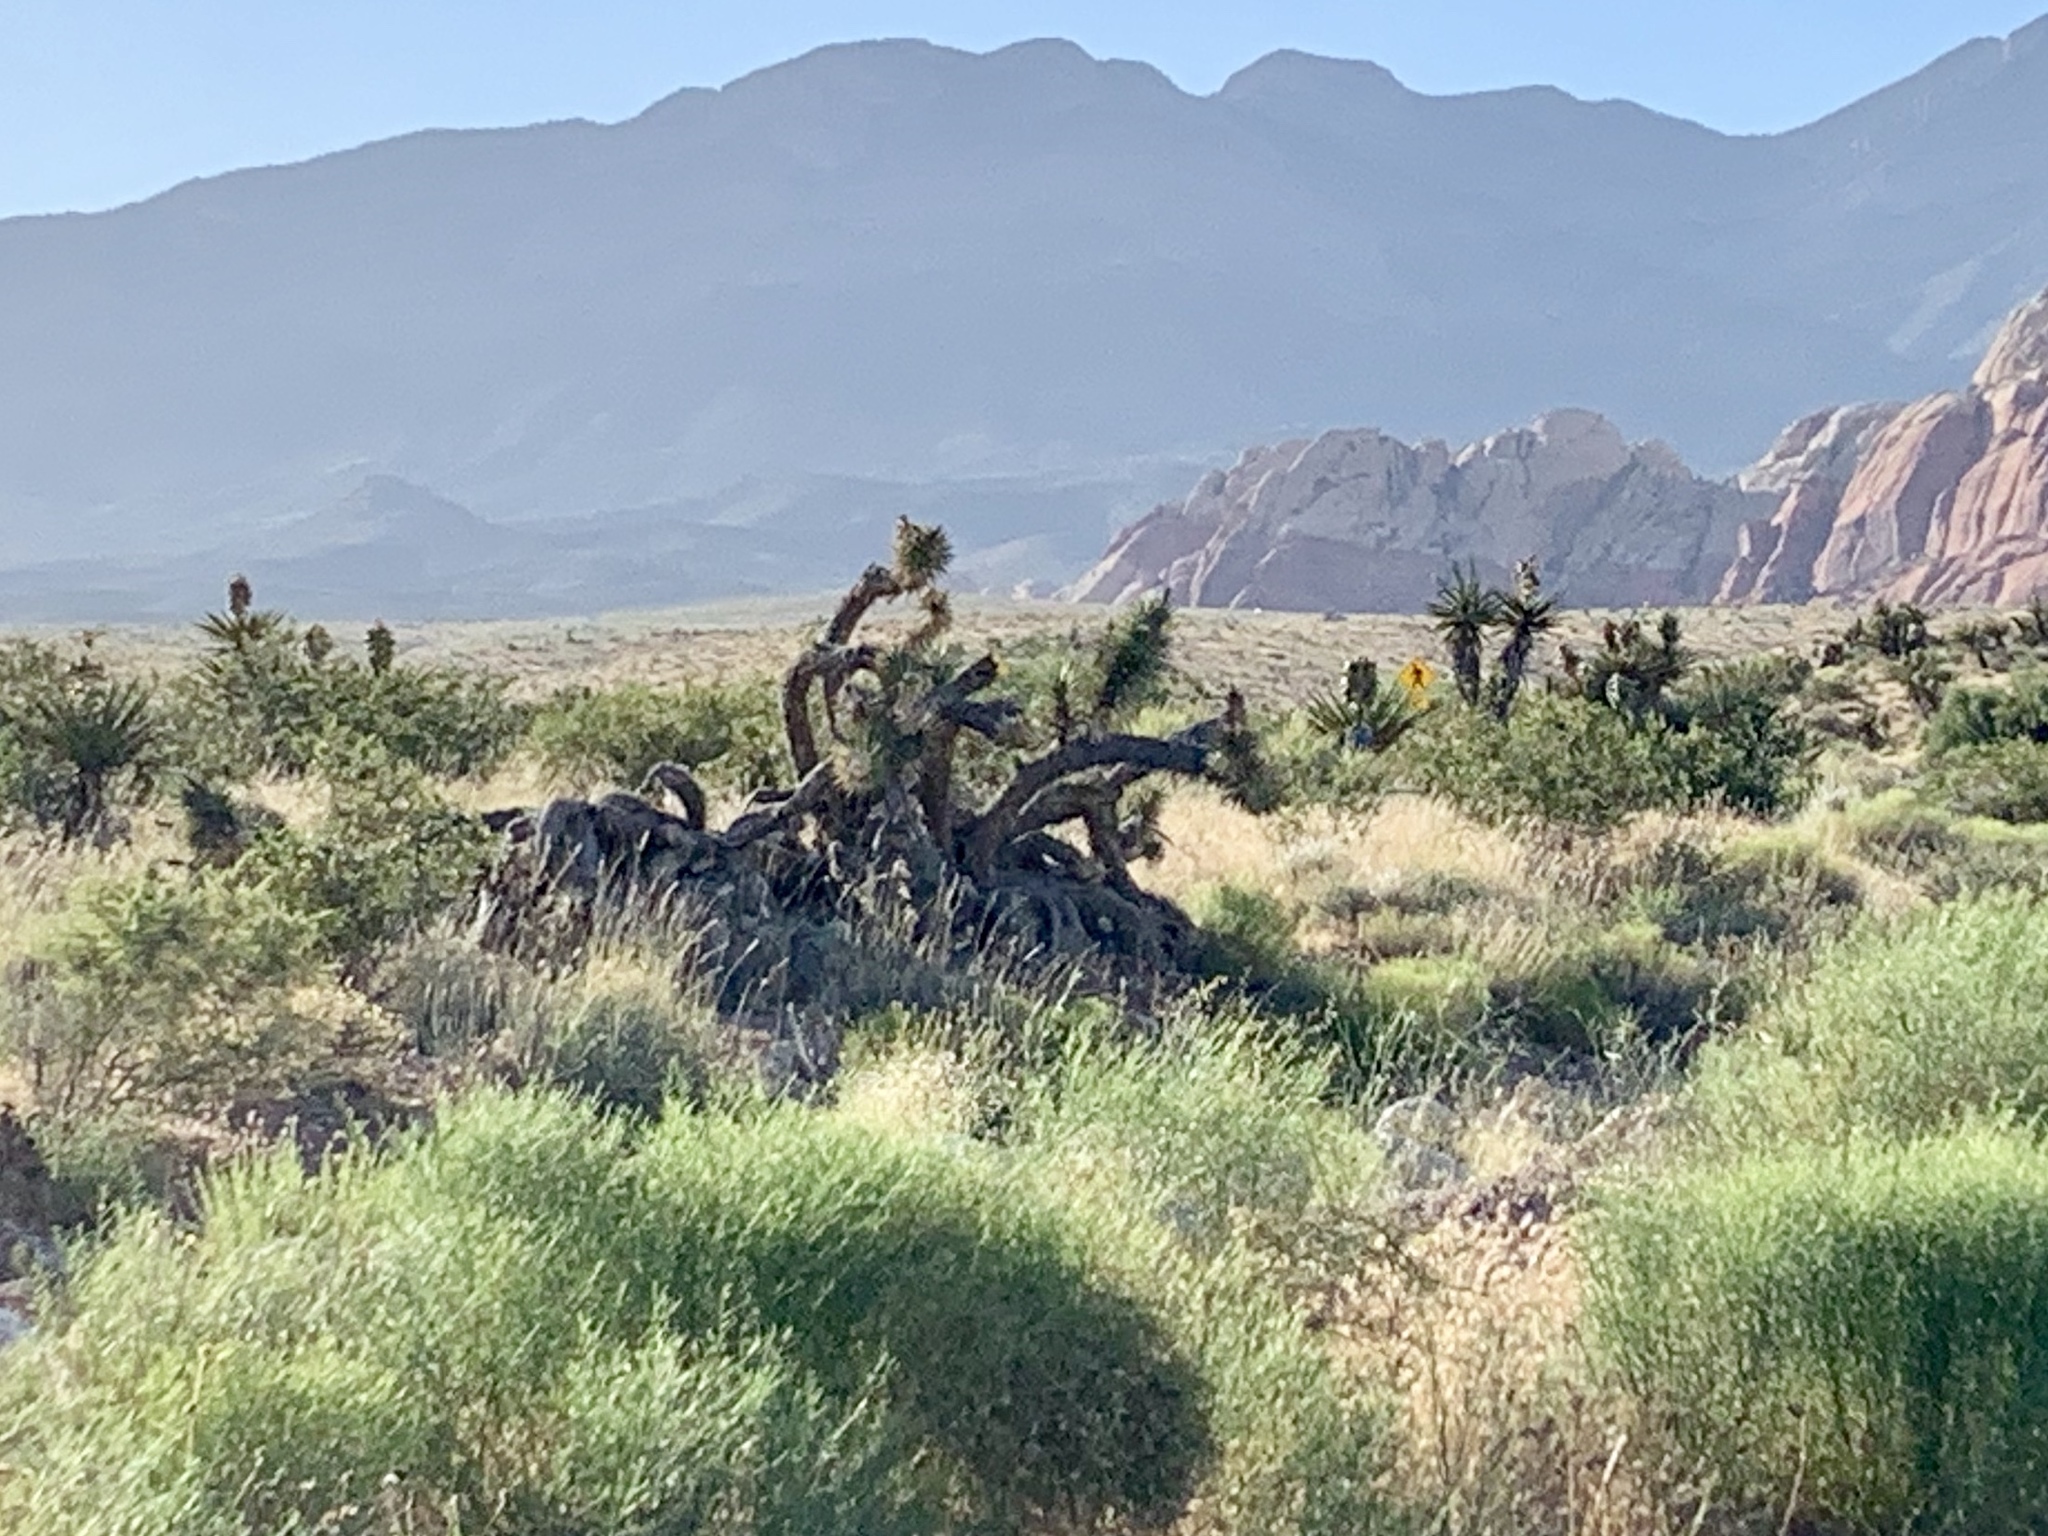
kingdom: Plantae
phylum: Tracheophyta
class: Liliopsida
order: Asparagales
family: Asparagaceae
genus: Yucca
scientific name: Yucca brevifolia
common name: Joshua tree
